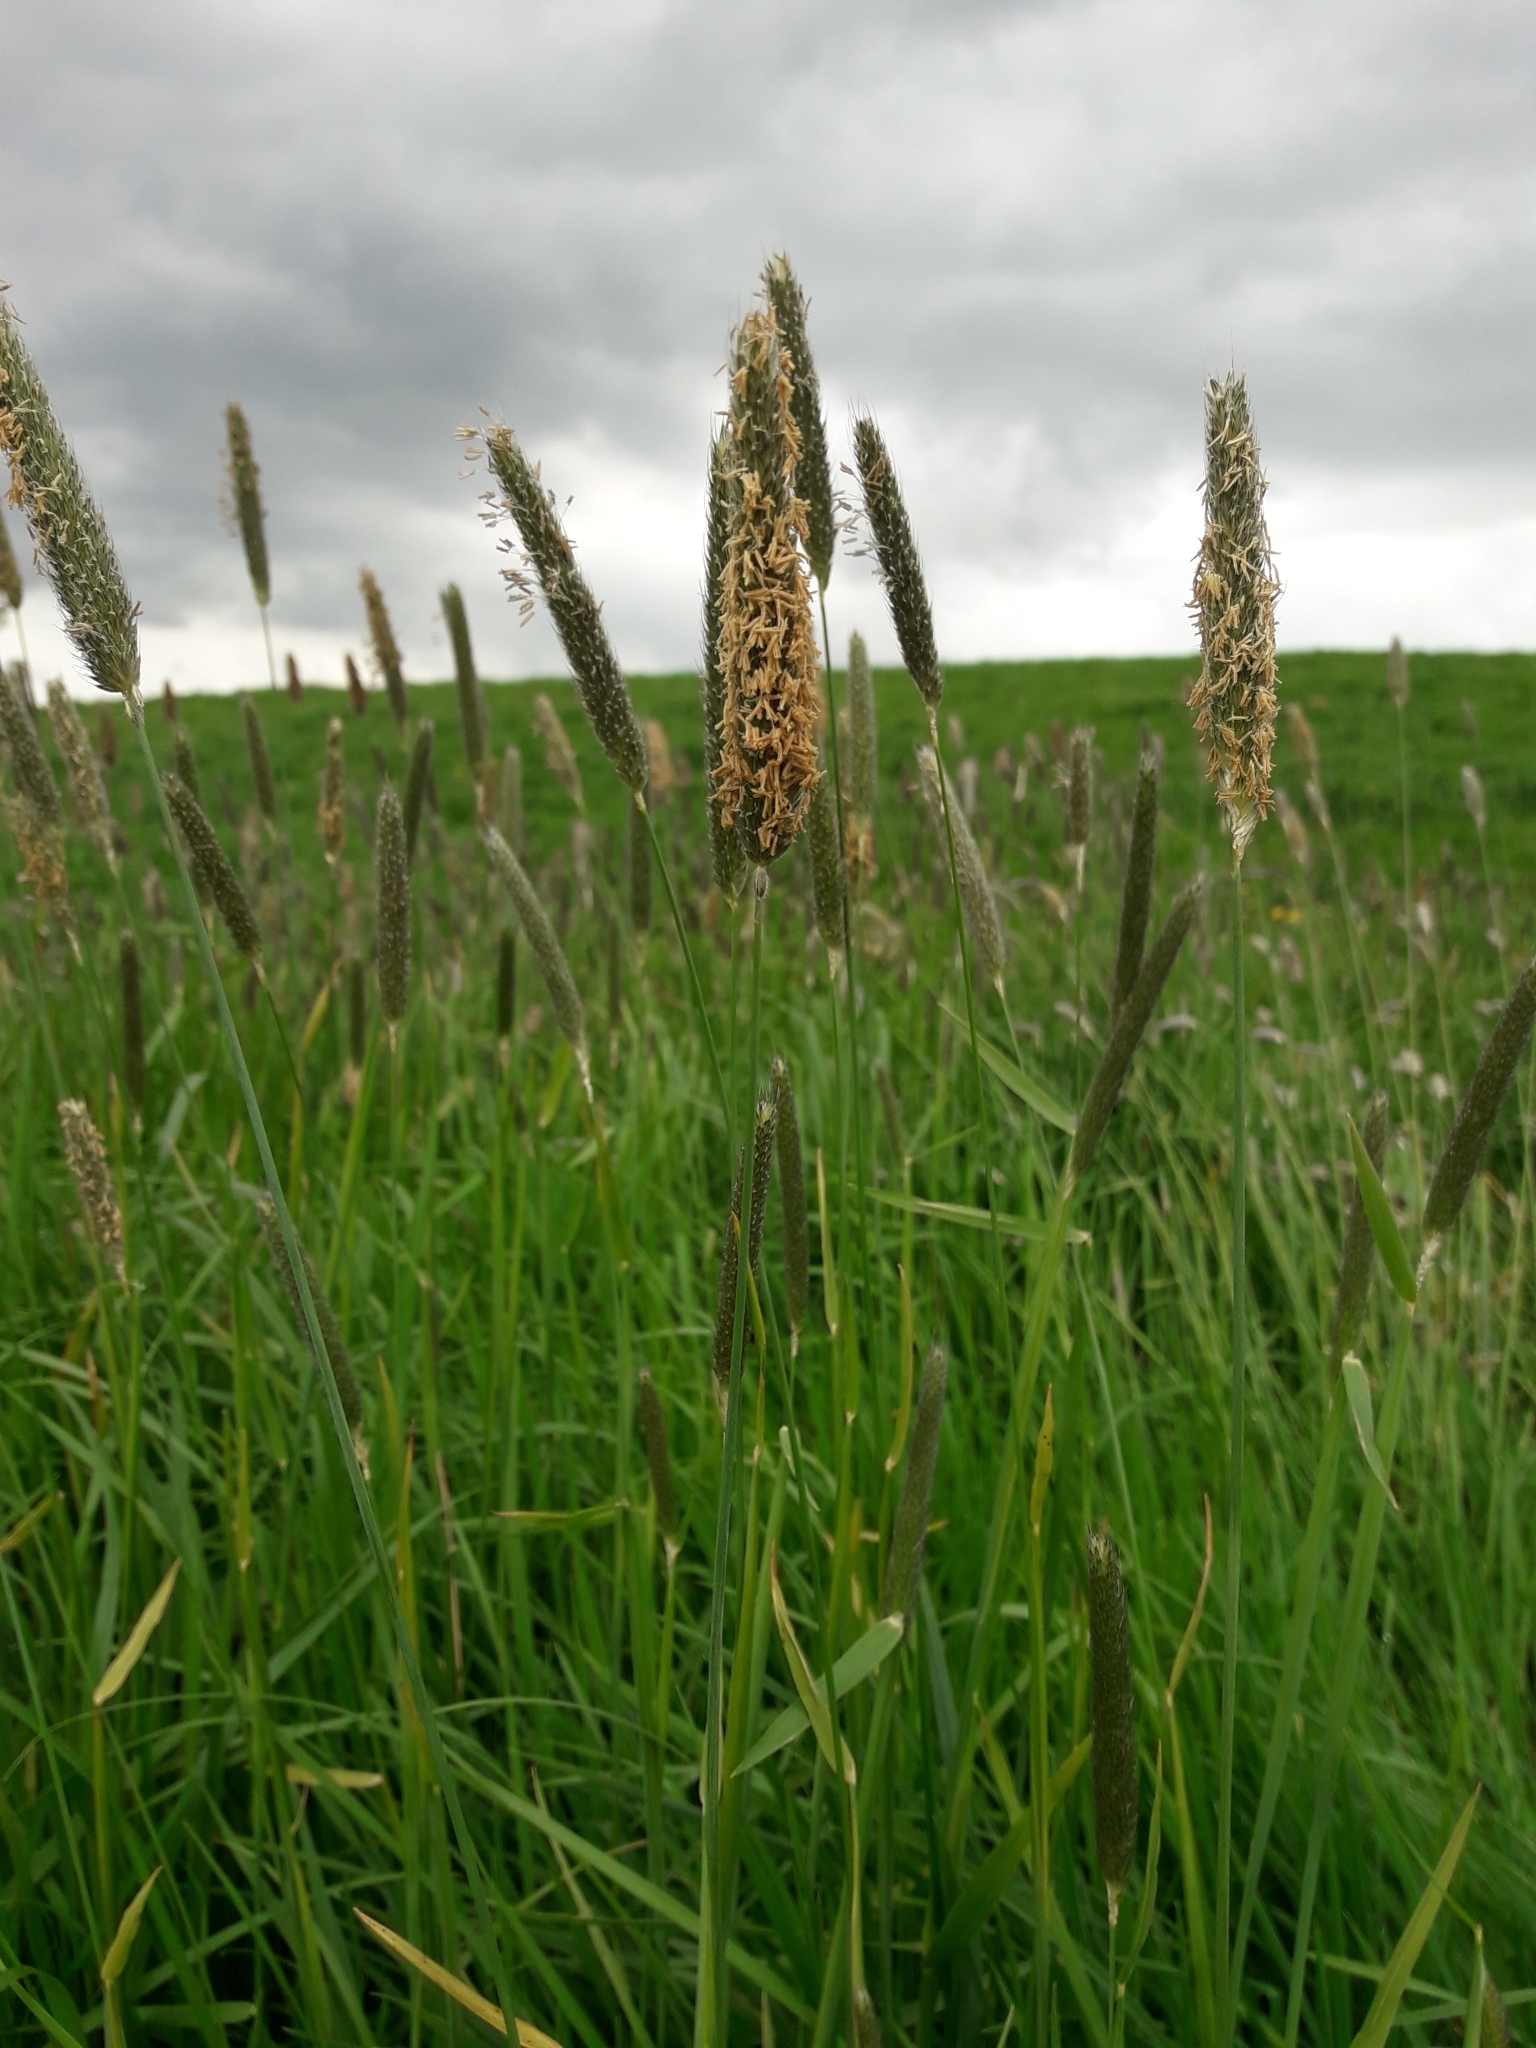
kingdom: Plantae
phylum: Tracheophyta
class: Liliopsida
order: Poales
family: Poaceae
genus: Alopecurus
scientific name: Alopecurus pratensis
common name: Meadow foxtail
